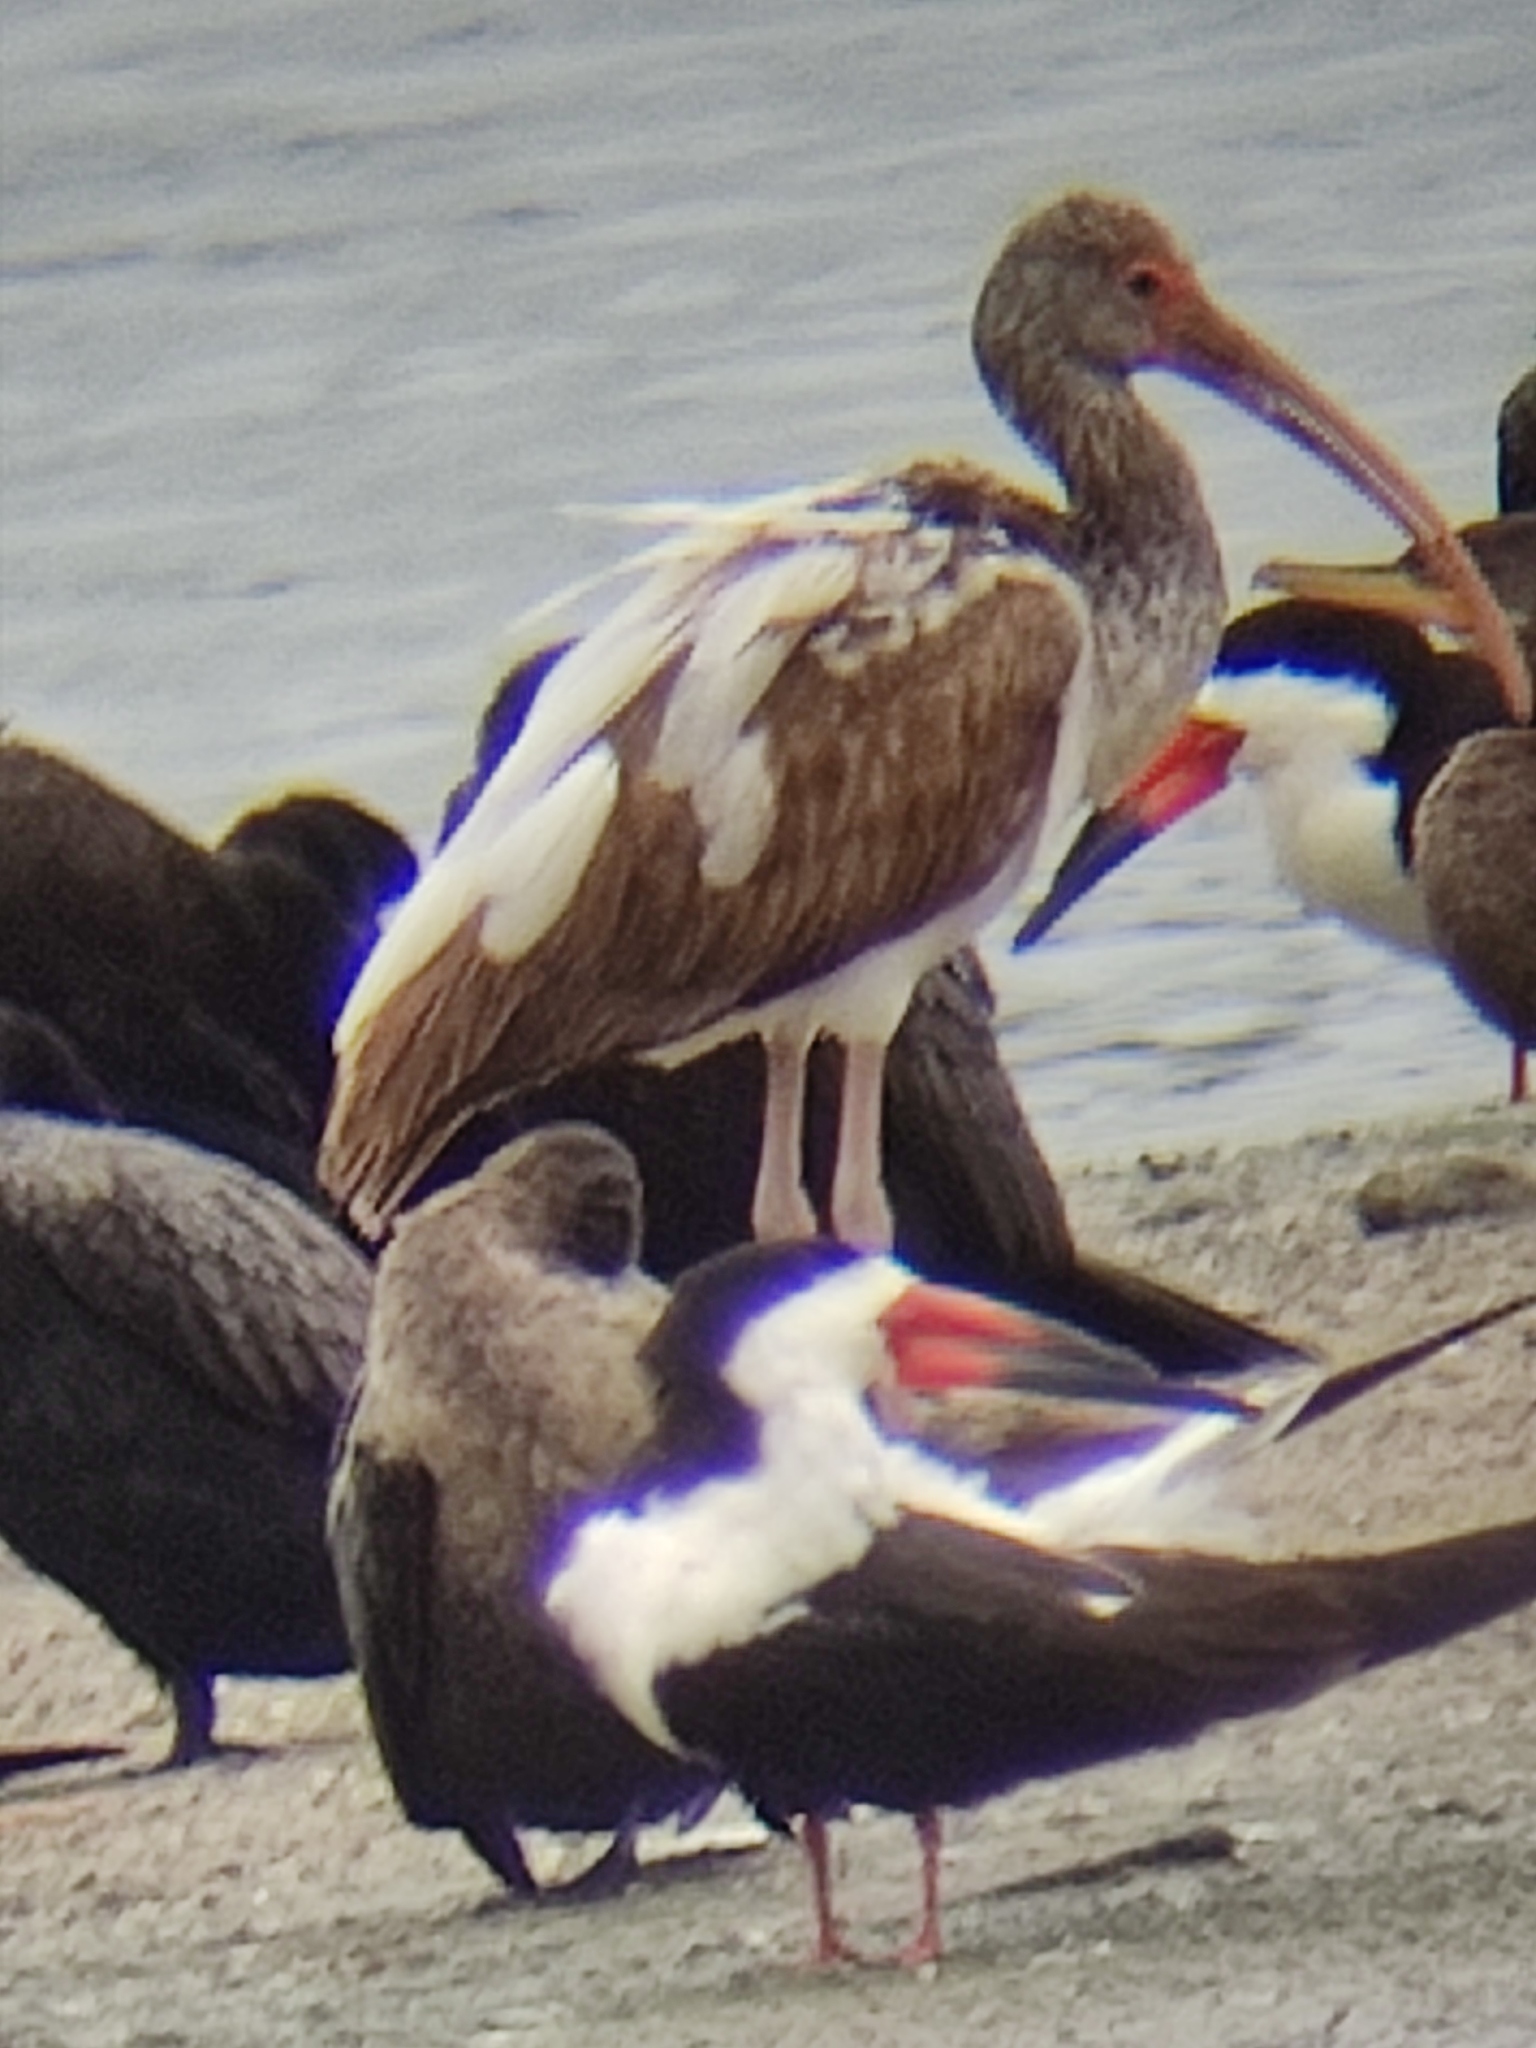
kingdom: Animalia
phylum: Chordata
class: Aves
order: Pelecaniformes
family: Threskiornithidae
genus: Eudocimus
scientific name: Eudocimus albus
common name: White ibis
